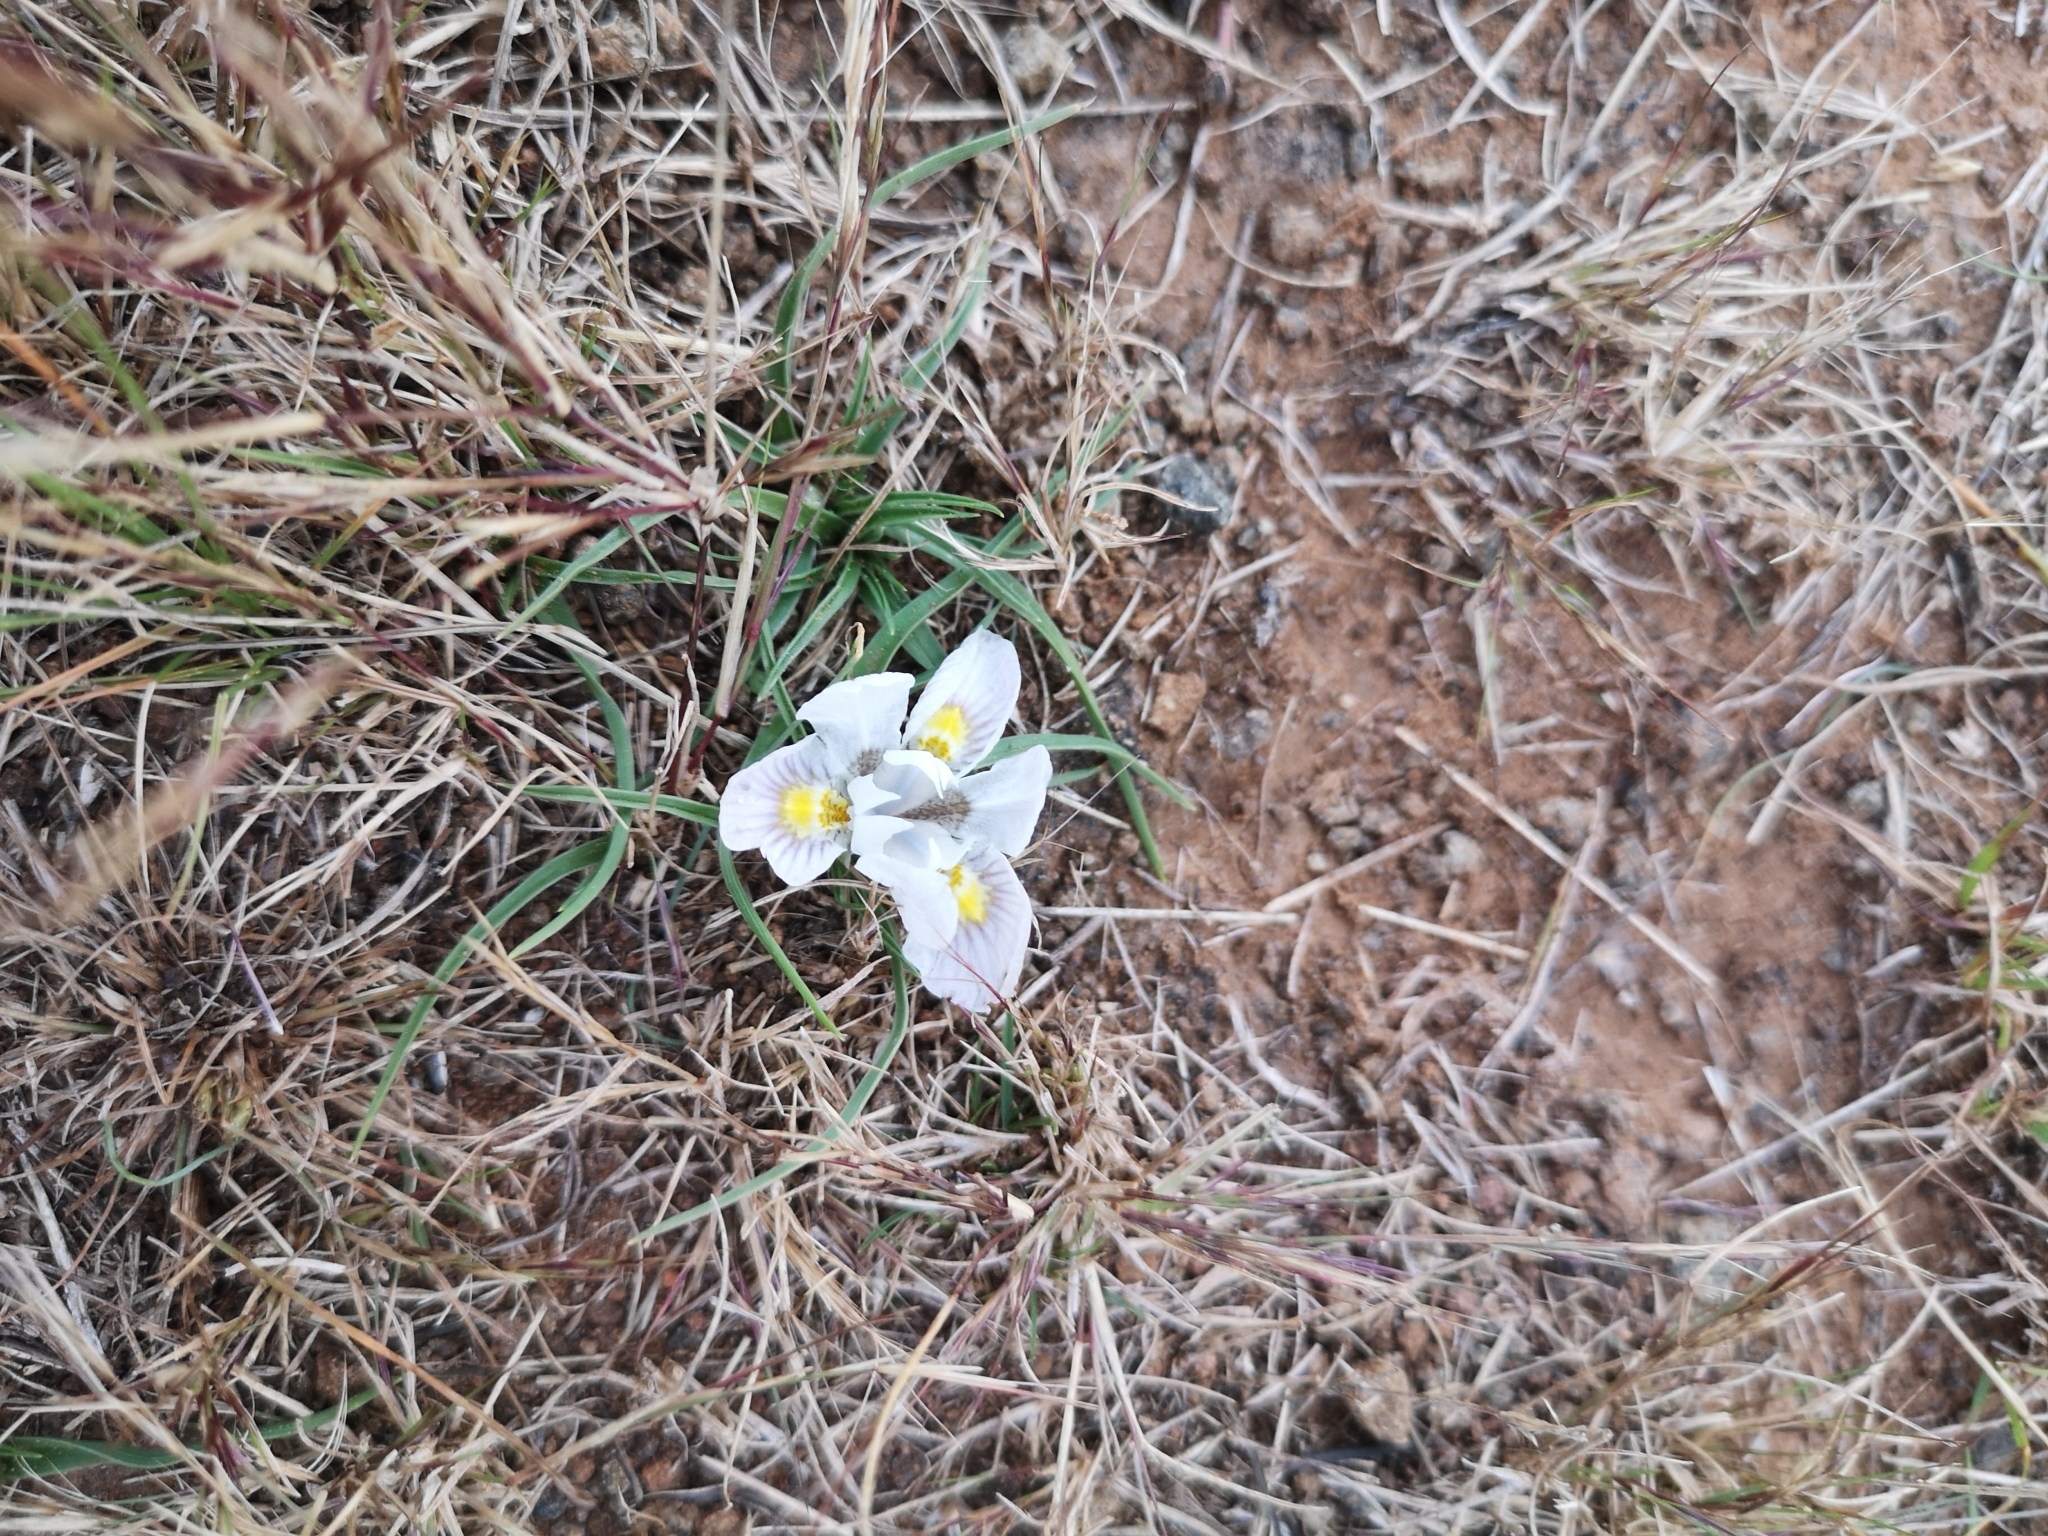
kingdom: Plantae
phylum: Tracheophyta
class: Liliopsida
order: Asparagales
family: Iridaceae
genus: Moraea
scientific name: Moraea falcifolia
